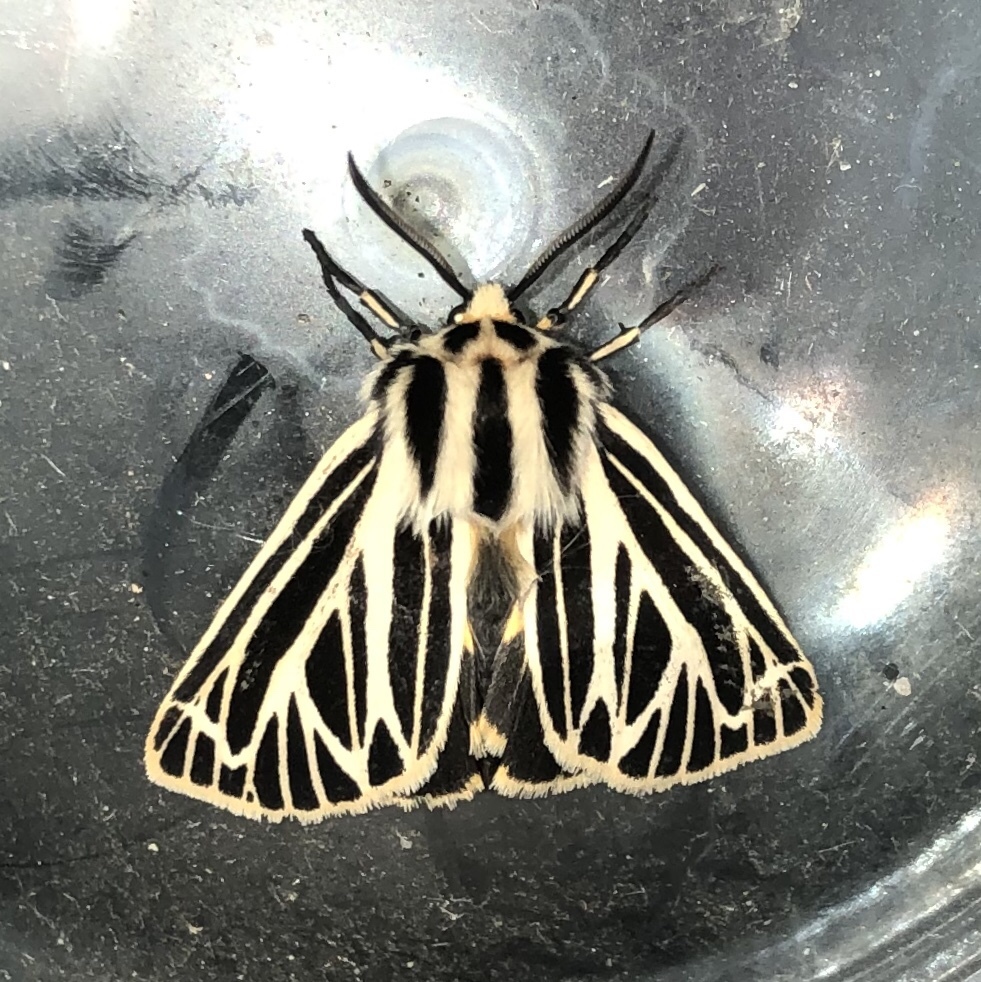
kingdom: Animalia
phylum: Arthropoda
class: Insecta
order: Lepidoptera
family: Erebidae
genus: Grammia
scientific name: Grammia virguncula
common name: Little tiger moth
